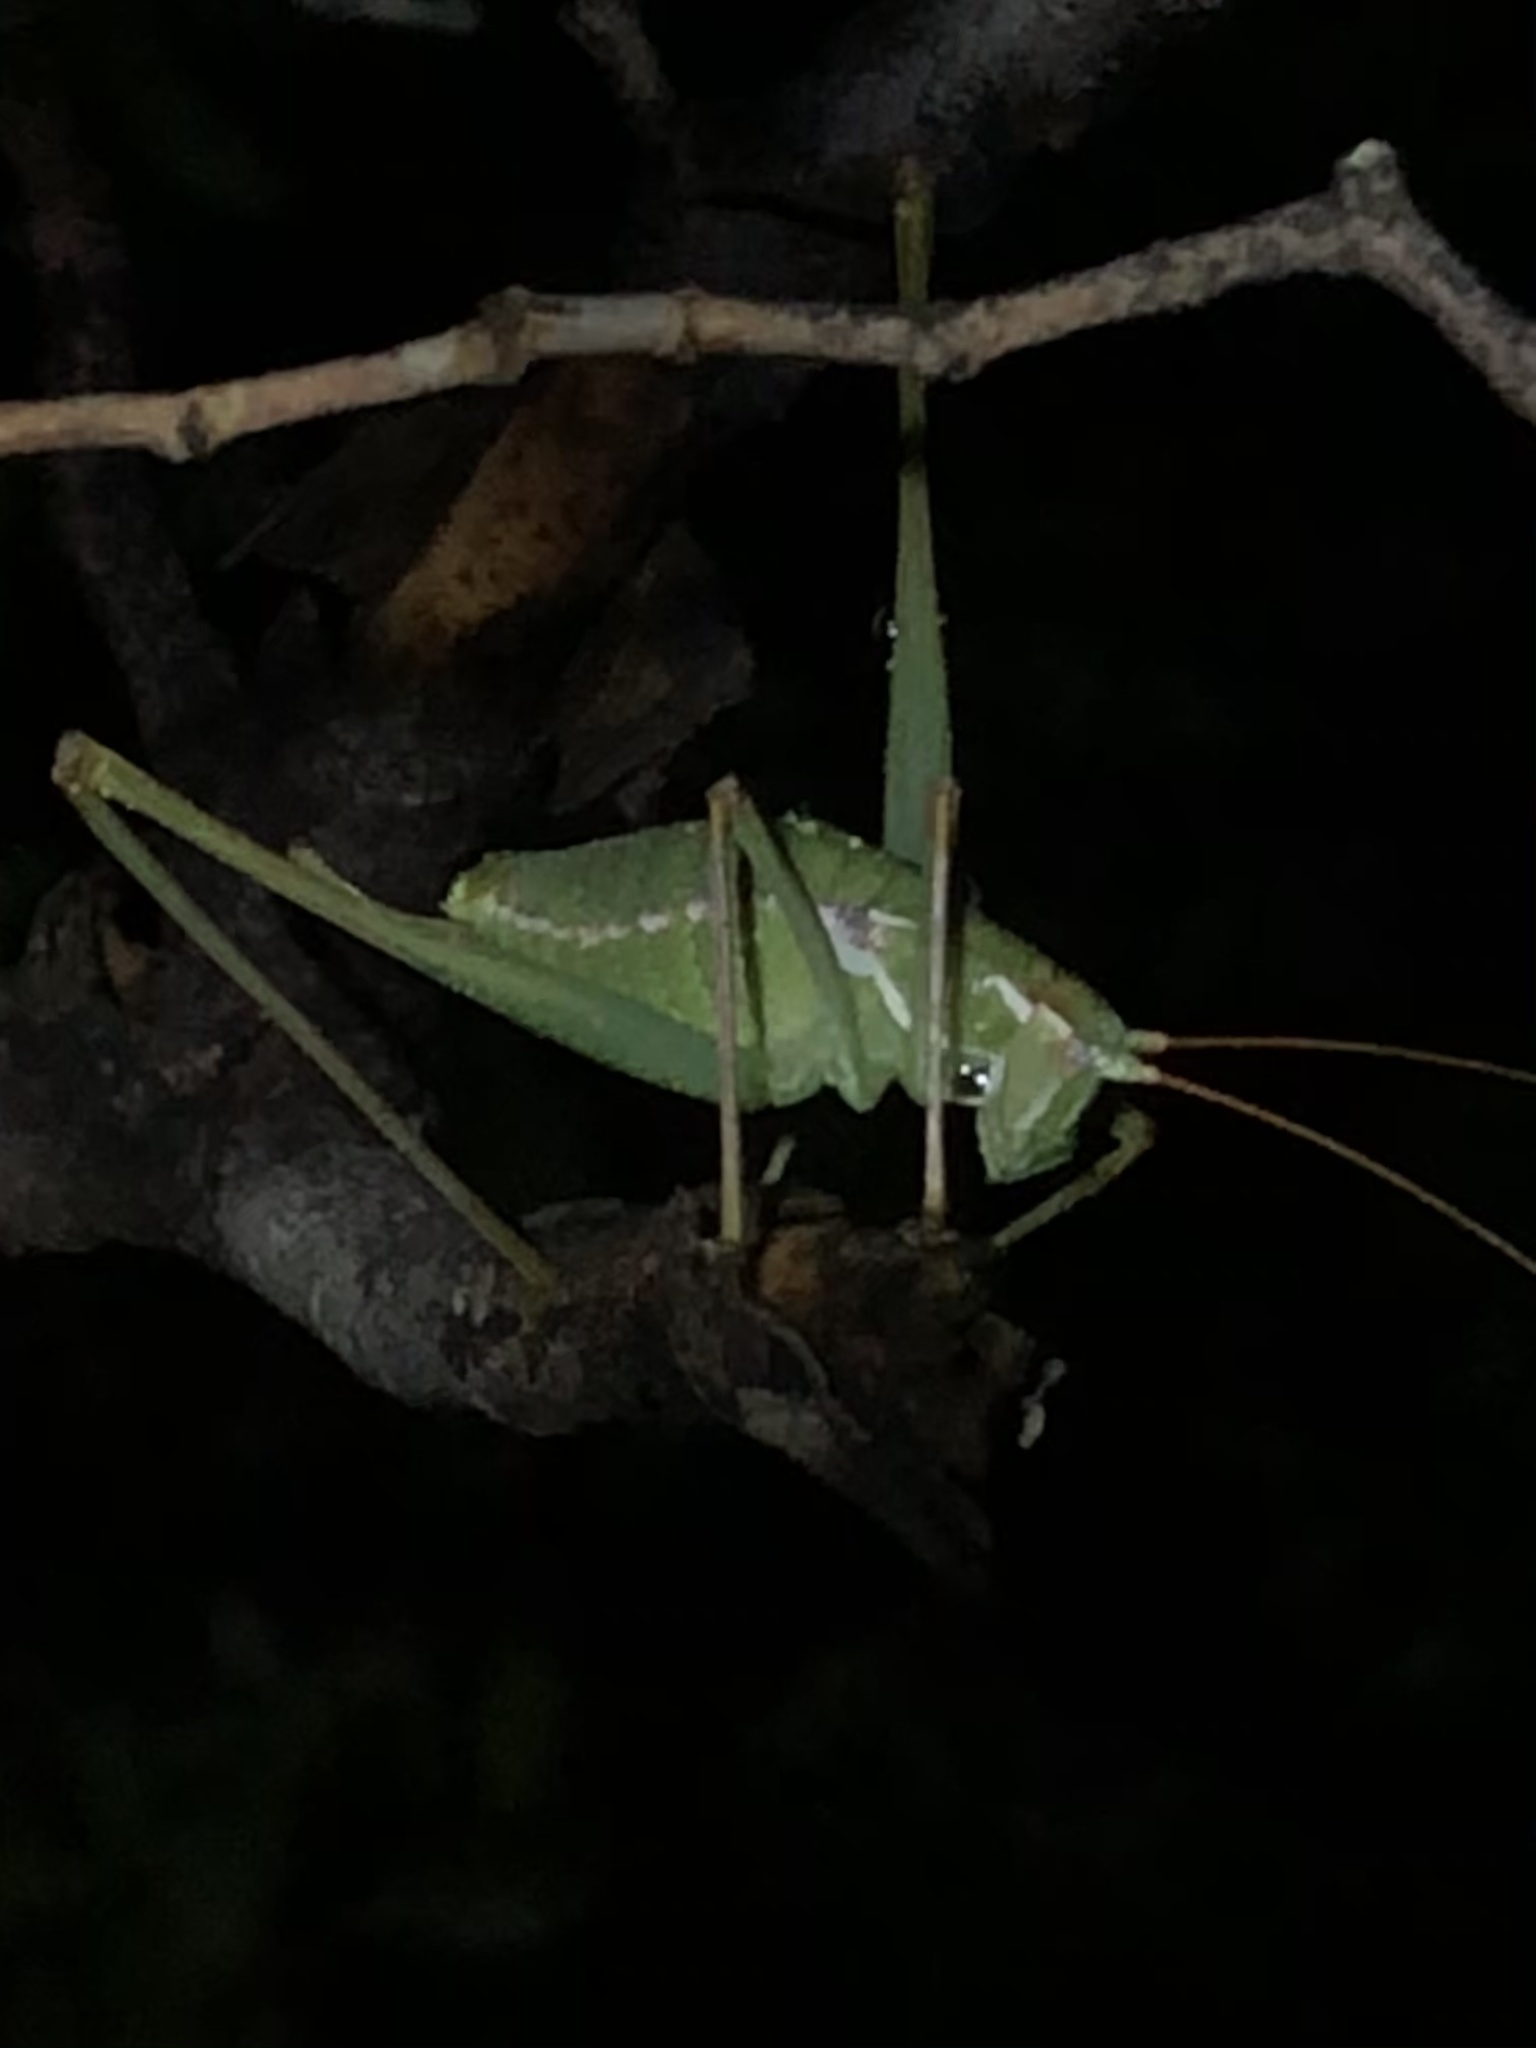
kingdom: Animalia
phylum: Arthropoda
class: Insecta
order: Orthoptera
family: Tettigoniidae
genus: Obolopteryx
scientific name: Obolopteryx brevihastata
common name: Common short-winged katydid
